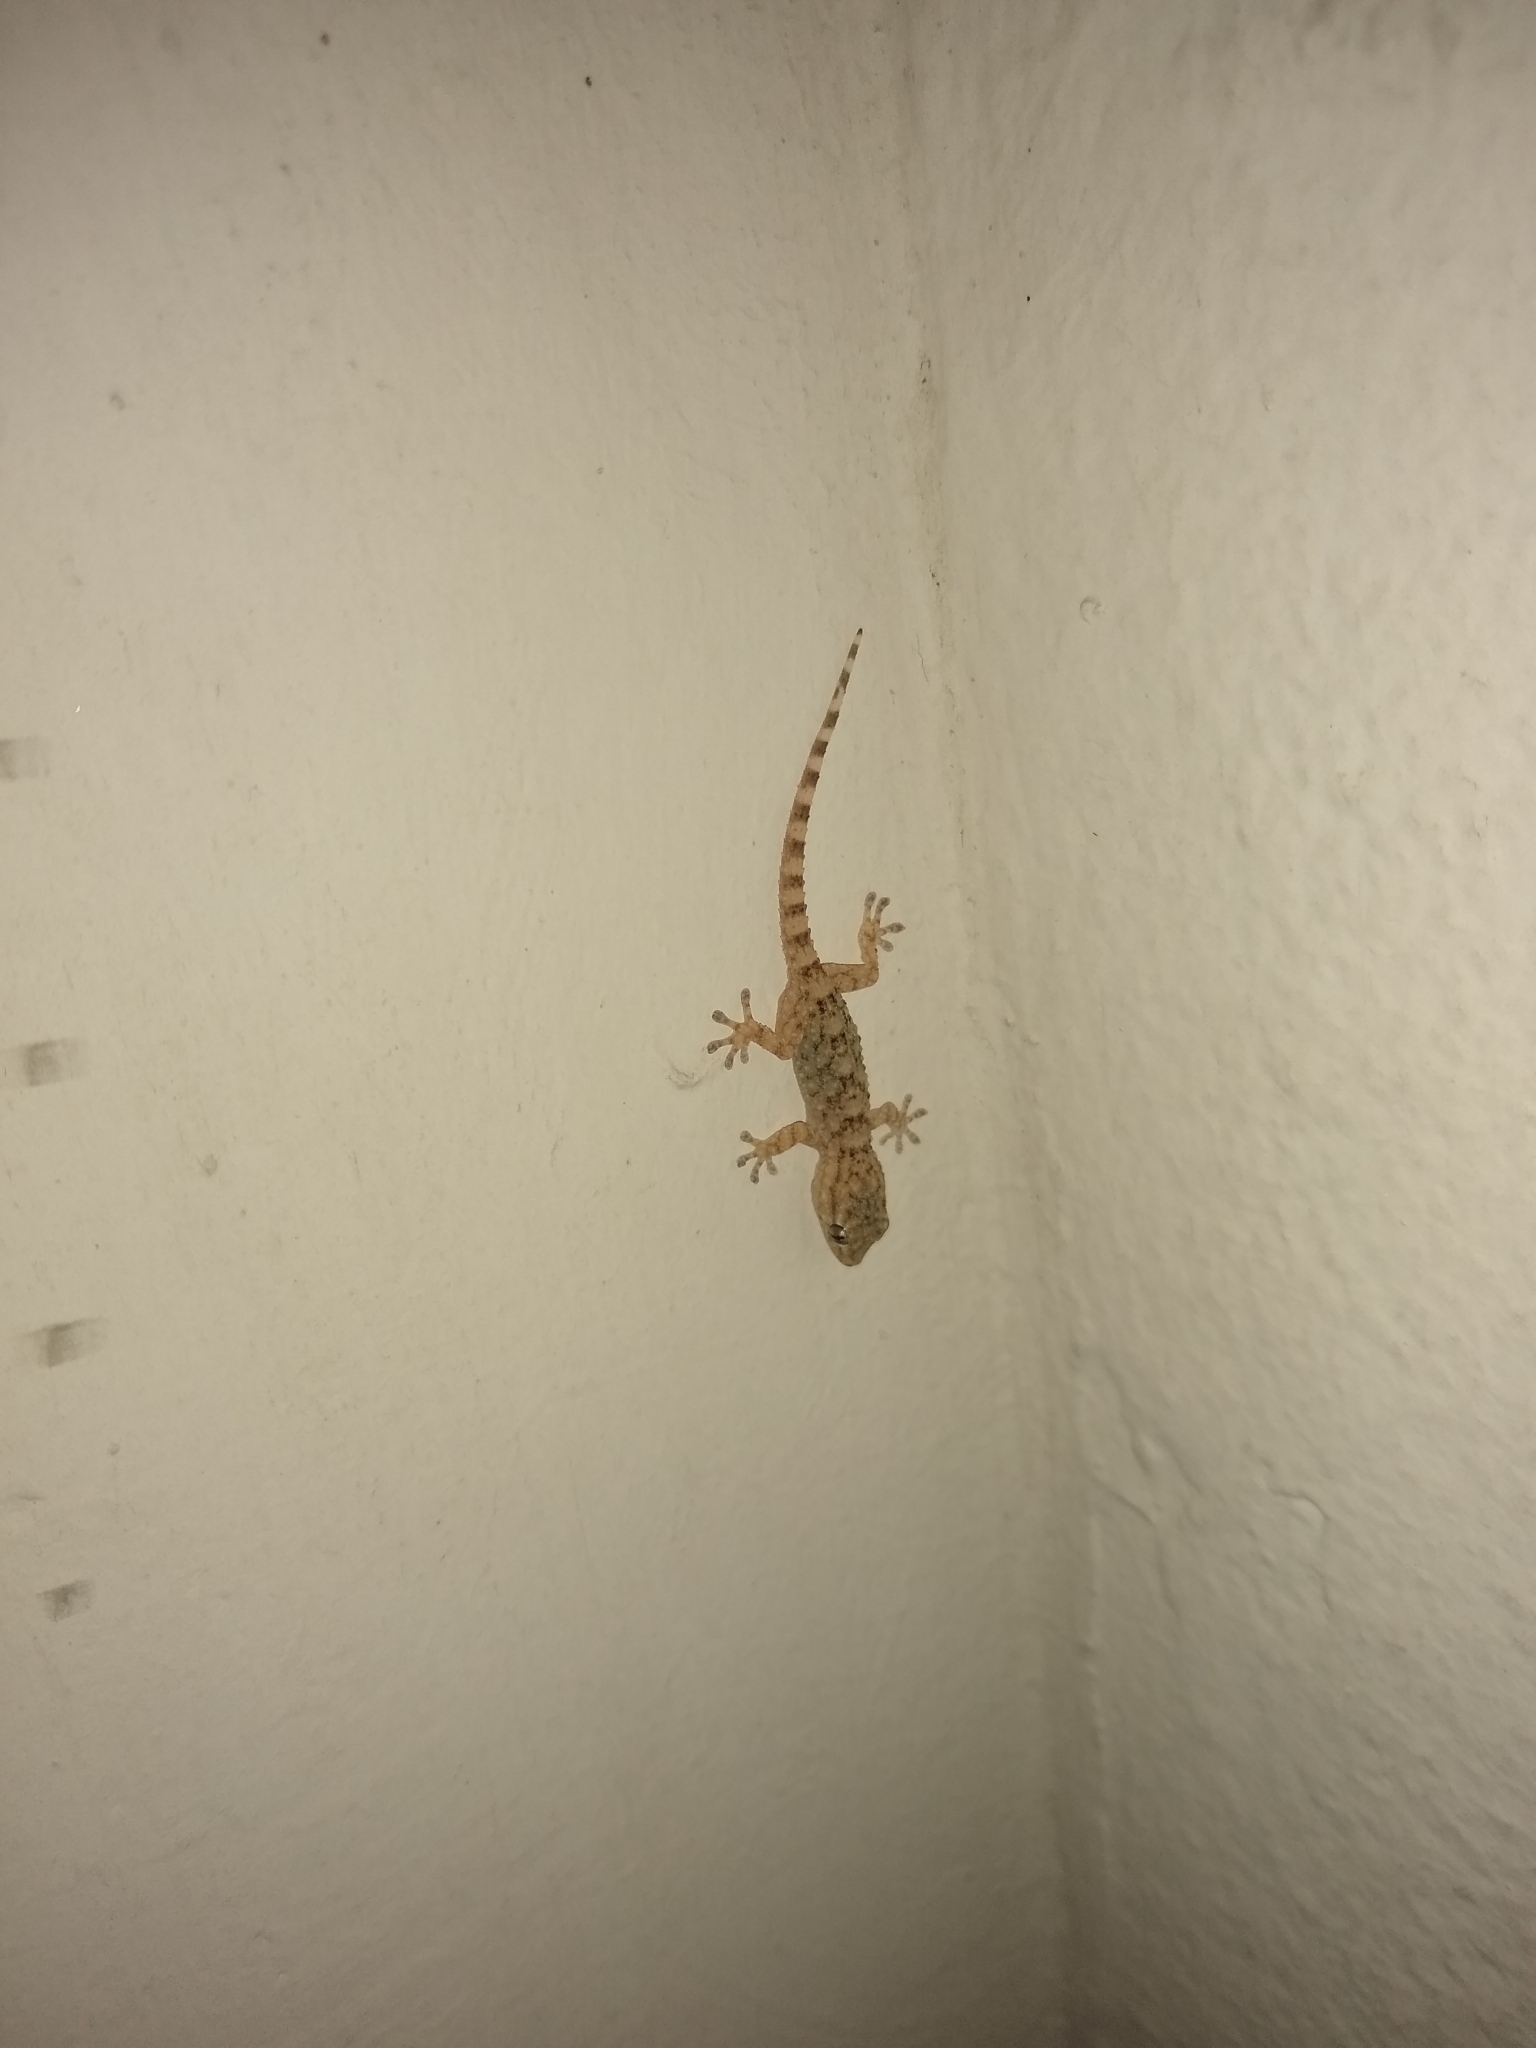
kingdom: Animalia
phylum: Chordata
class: Squamata
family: Phyllodactylidae
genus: Tarentola
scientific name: Tarentola mauritanica
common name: Moorish gecko
